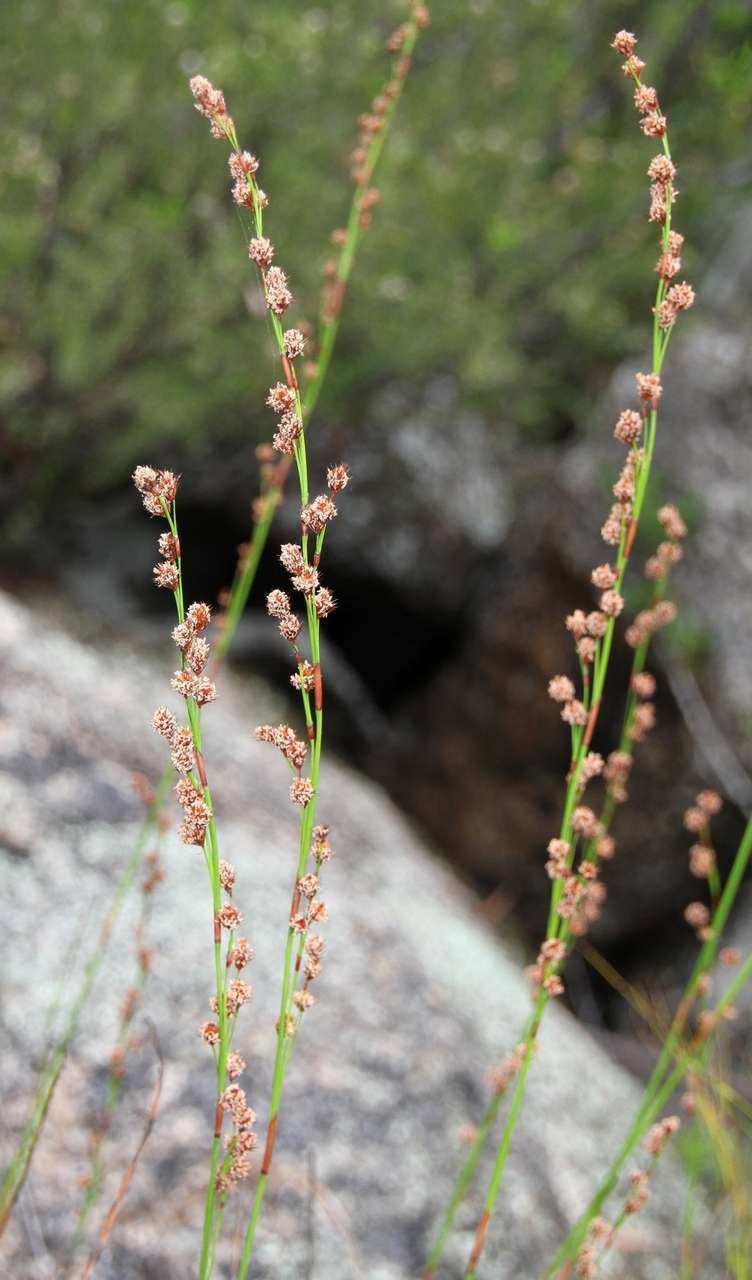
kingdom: Plantae
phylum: Tracheophyta
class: Liliopsida
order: Poales
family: Restionaceae
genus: Baloskion
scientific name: Baloskion tetraphyllum
